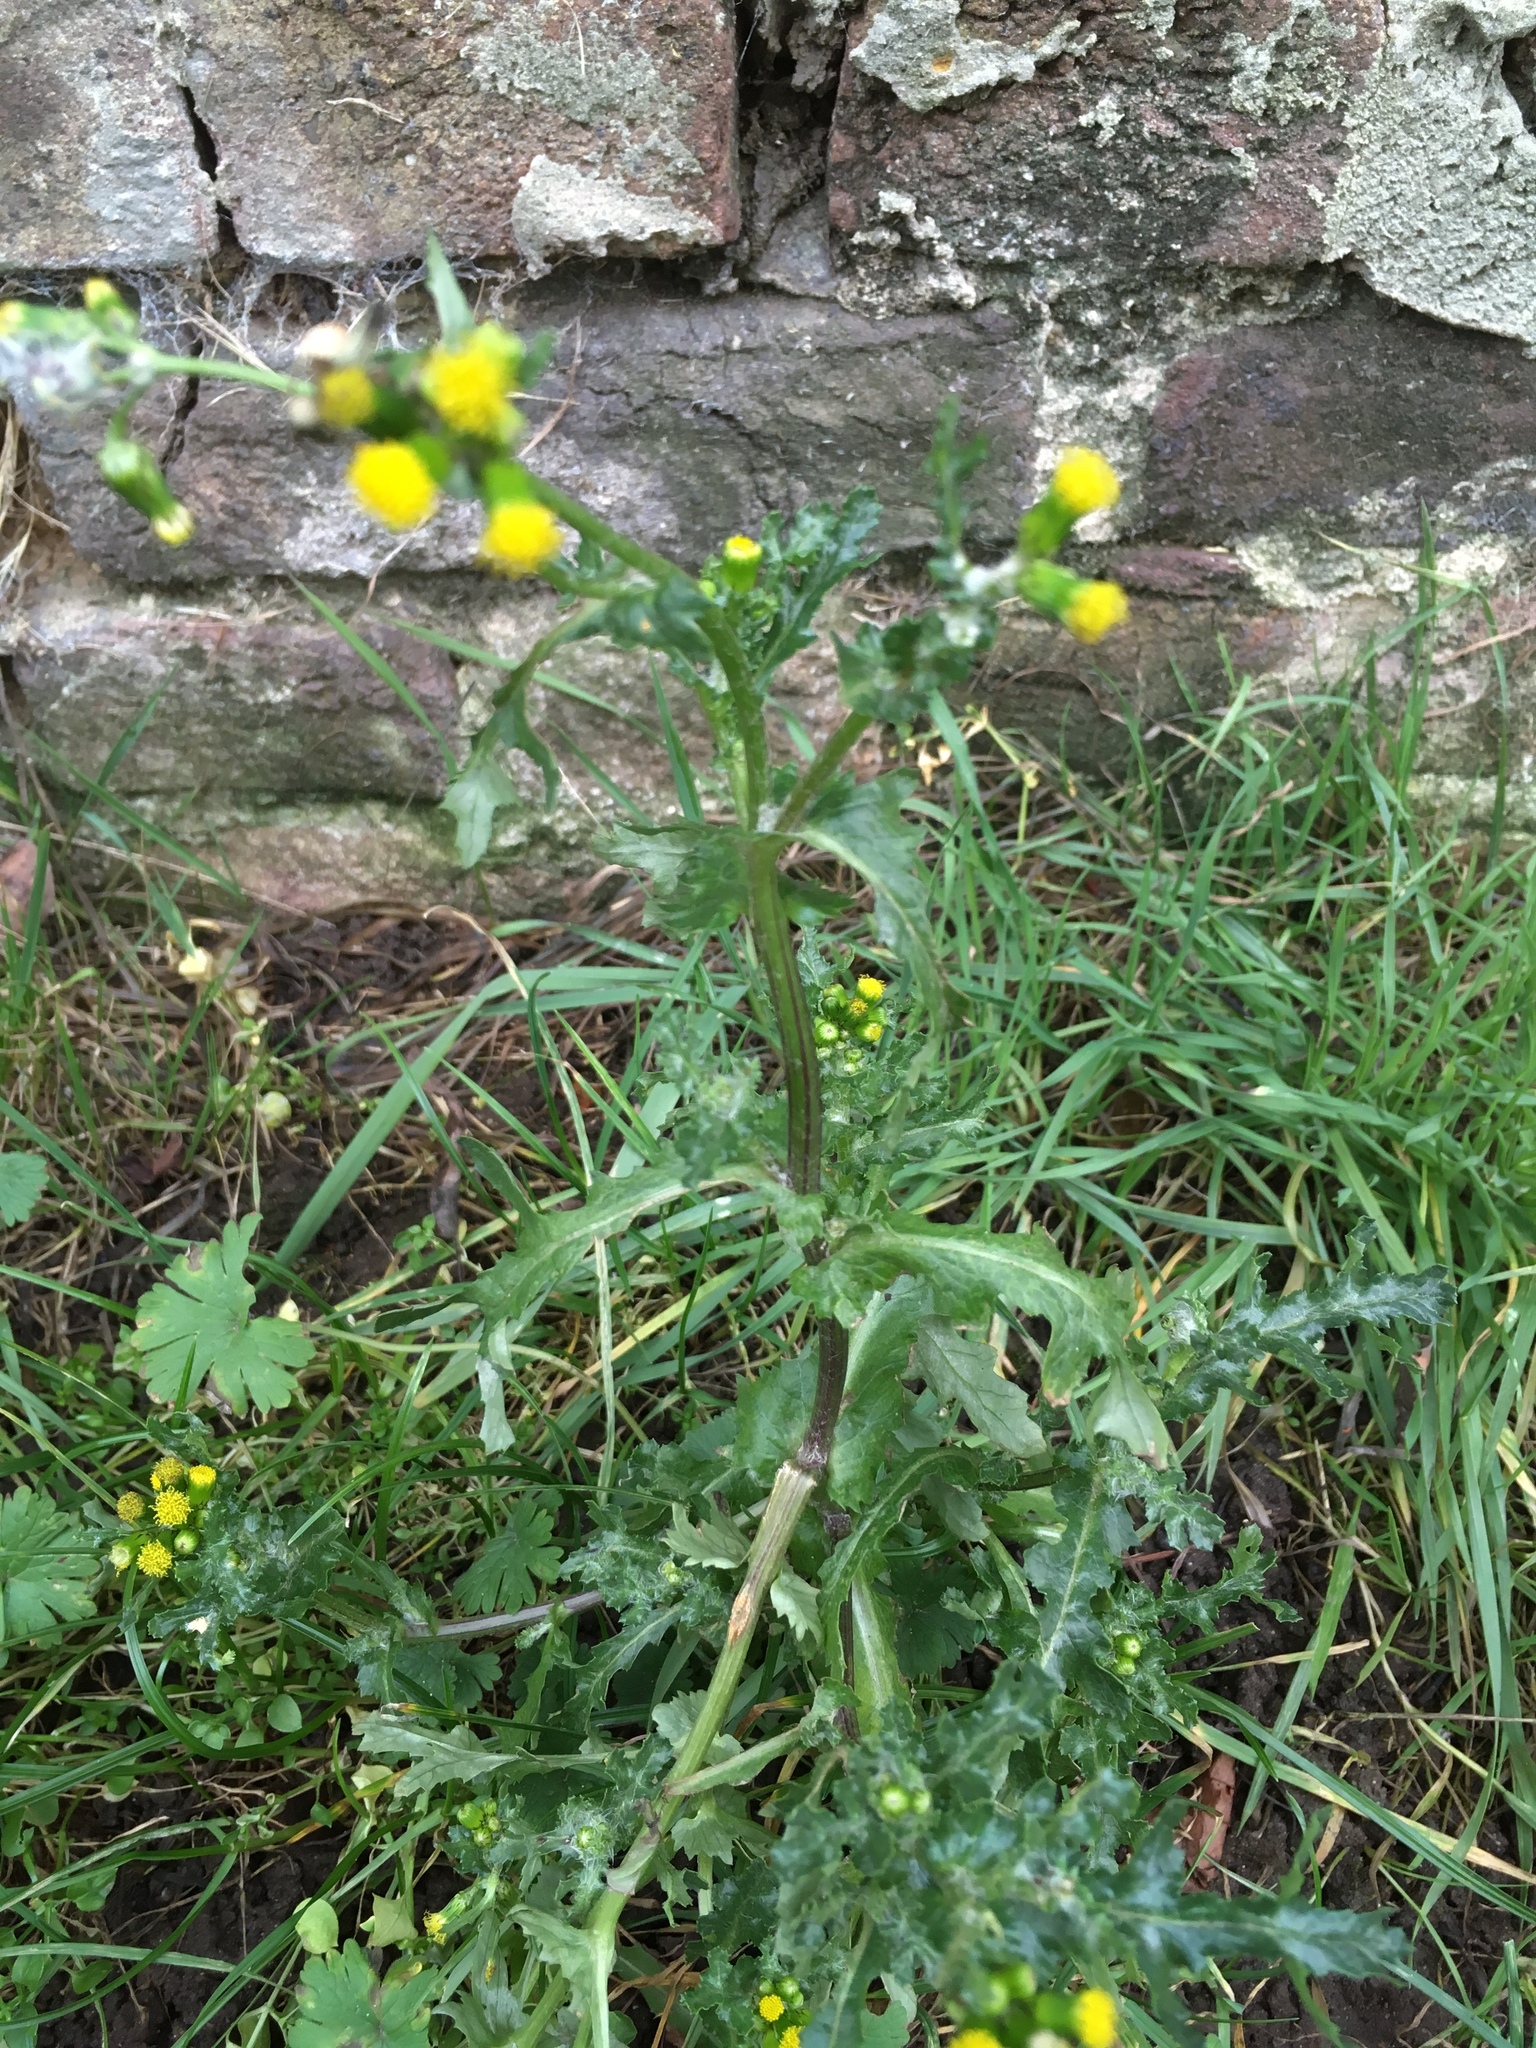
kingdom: Plantae
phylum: Tracheophyta
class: Magnoliopsida
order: Asterales
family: Asteraceae
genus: Senecio
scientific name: Senecio vulgaris
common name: Old-man-in-the-spring
